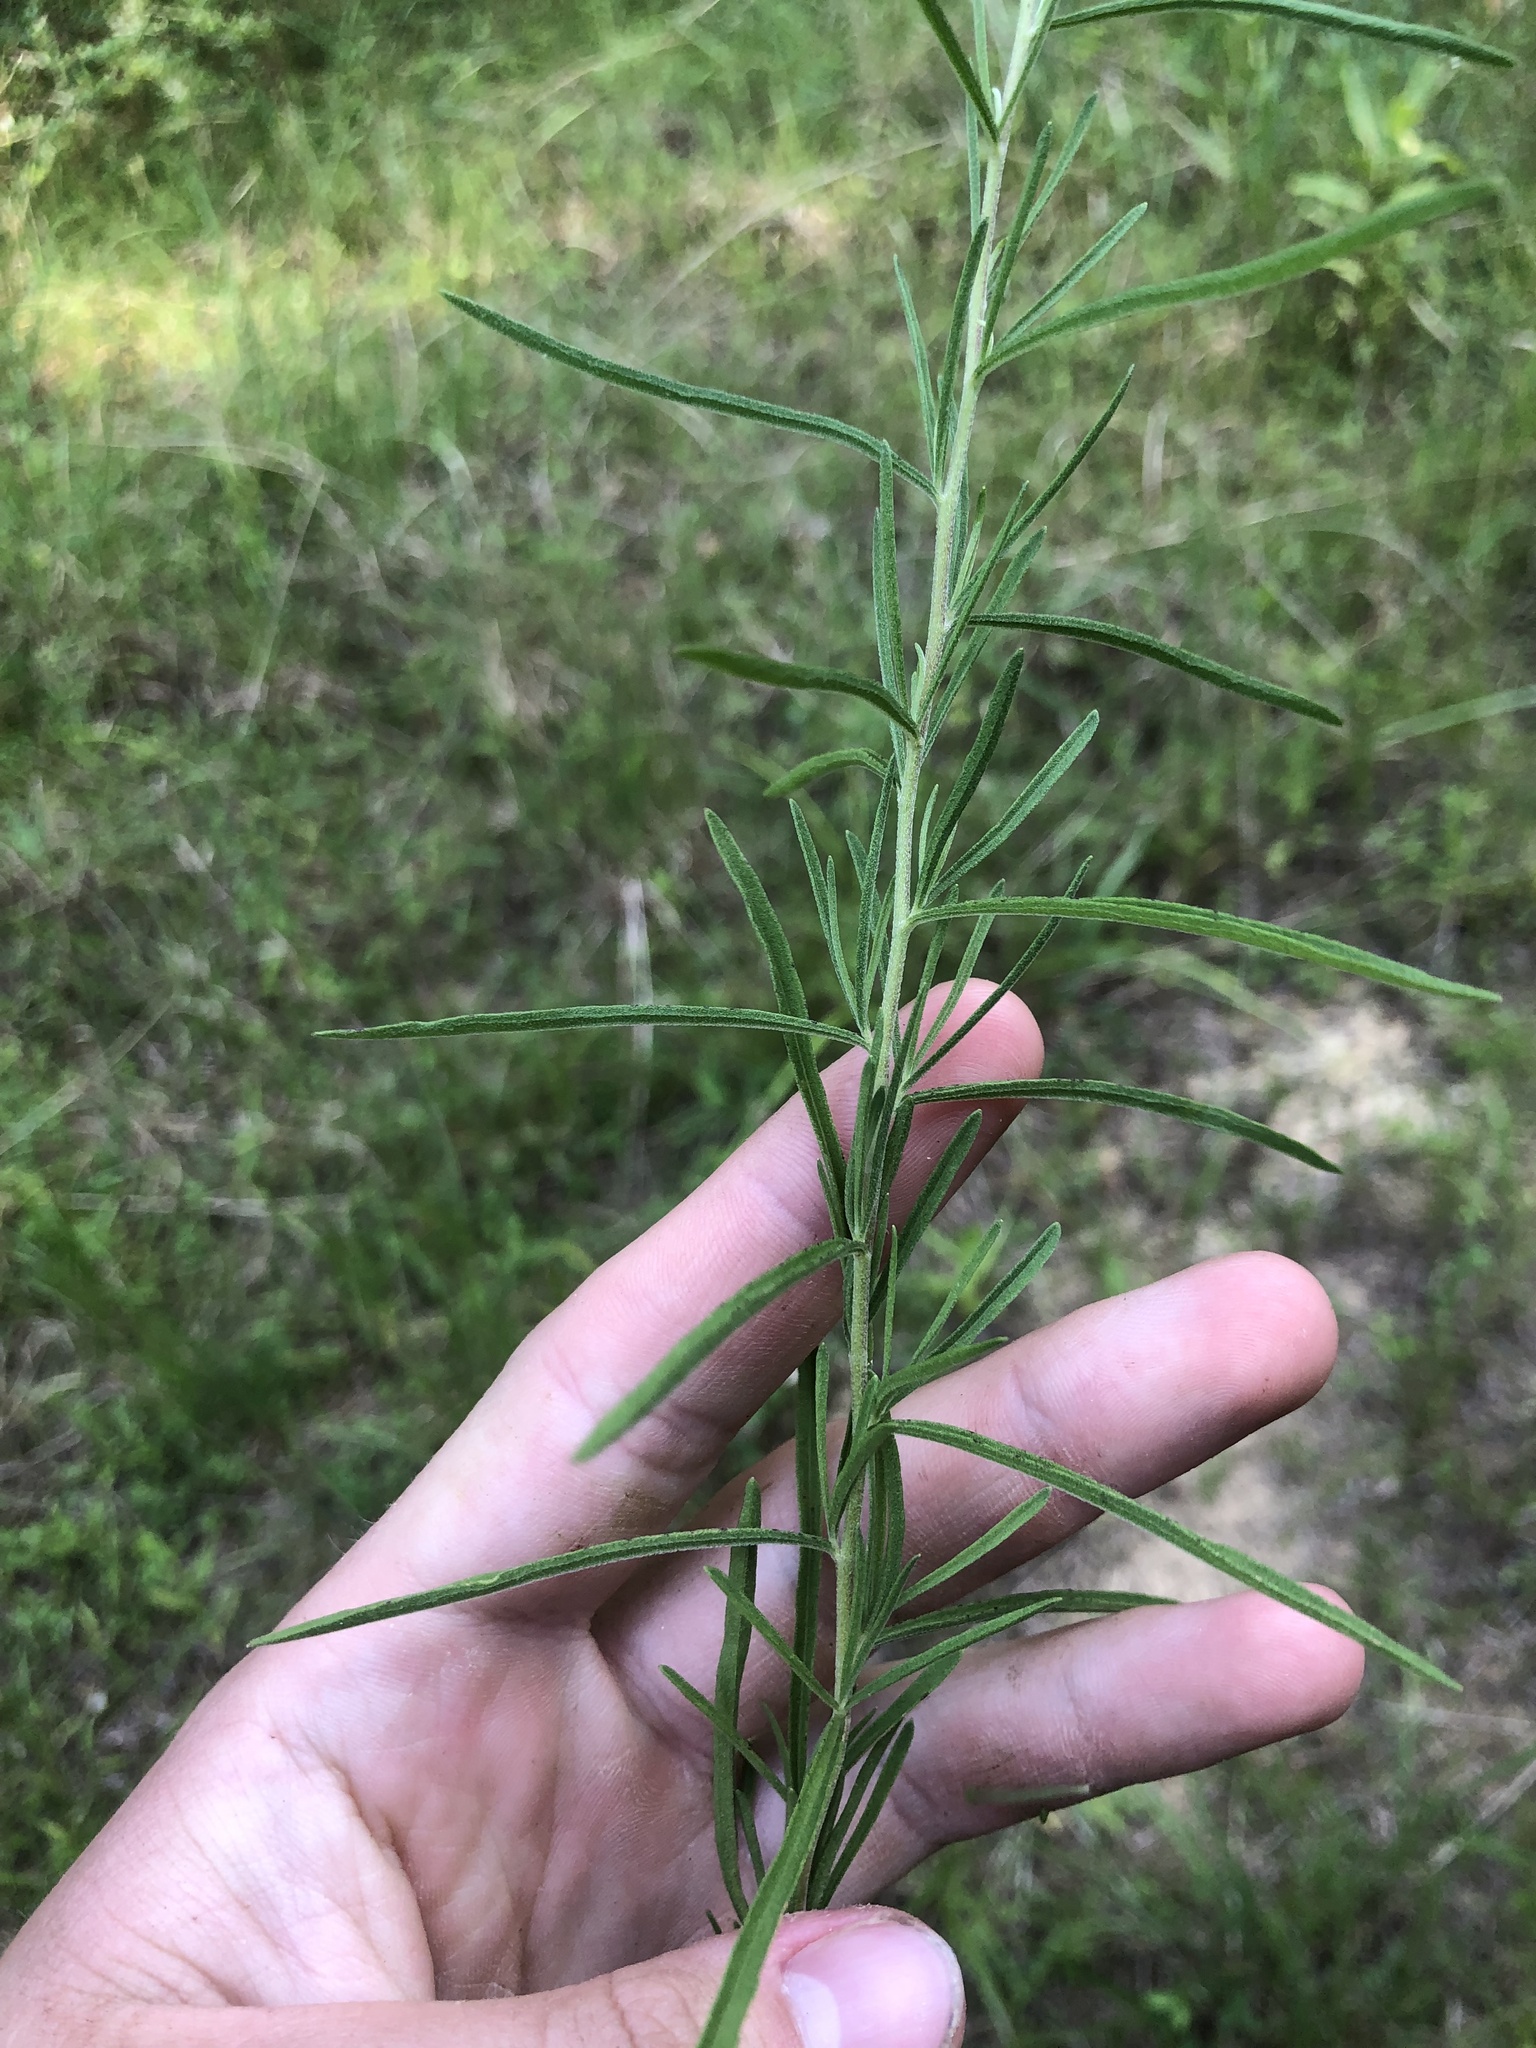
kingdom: Plantae
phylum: Tracheophyta
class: Magnoliopsida
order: Asterales
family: Asteraceae
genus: Eupatorium
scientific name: Eupatorium hyssopifolium
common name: Hyssop-leaf thoroughwort
